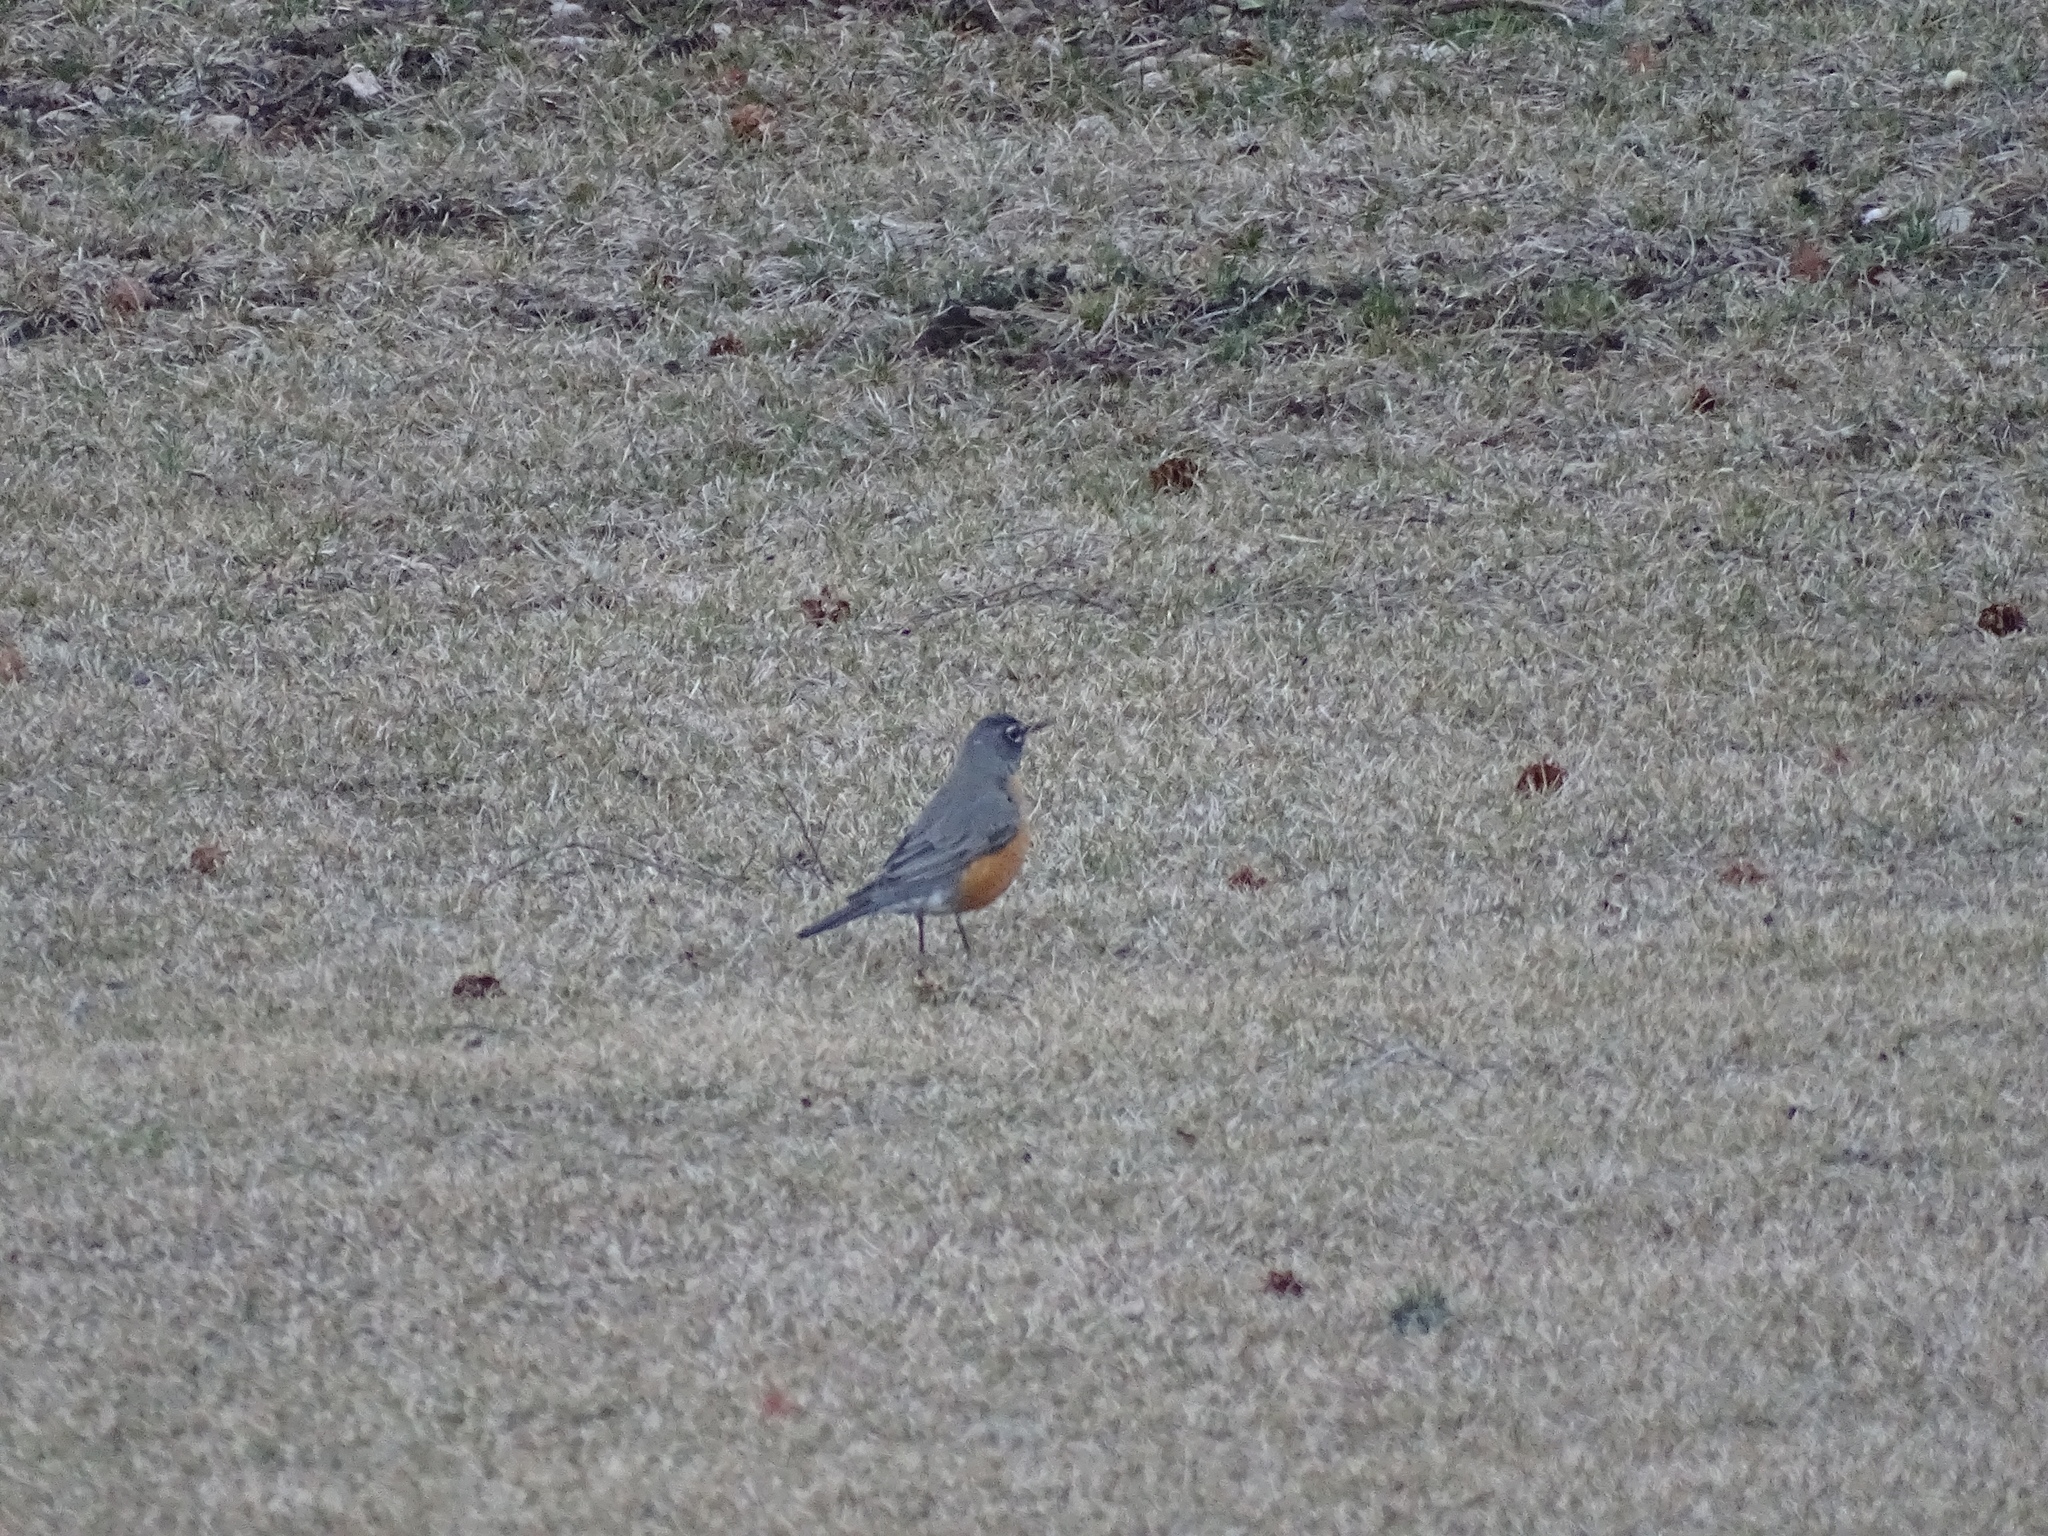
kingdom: Animalia
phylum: Chordata
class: Aves
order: Passeriformes
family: Turdidae
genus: Turdus
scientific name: Turdus migratorius
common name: American robin
